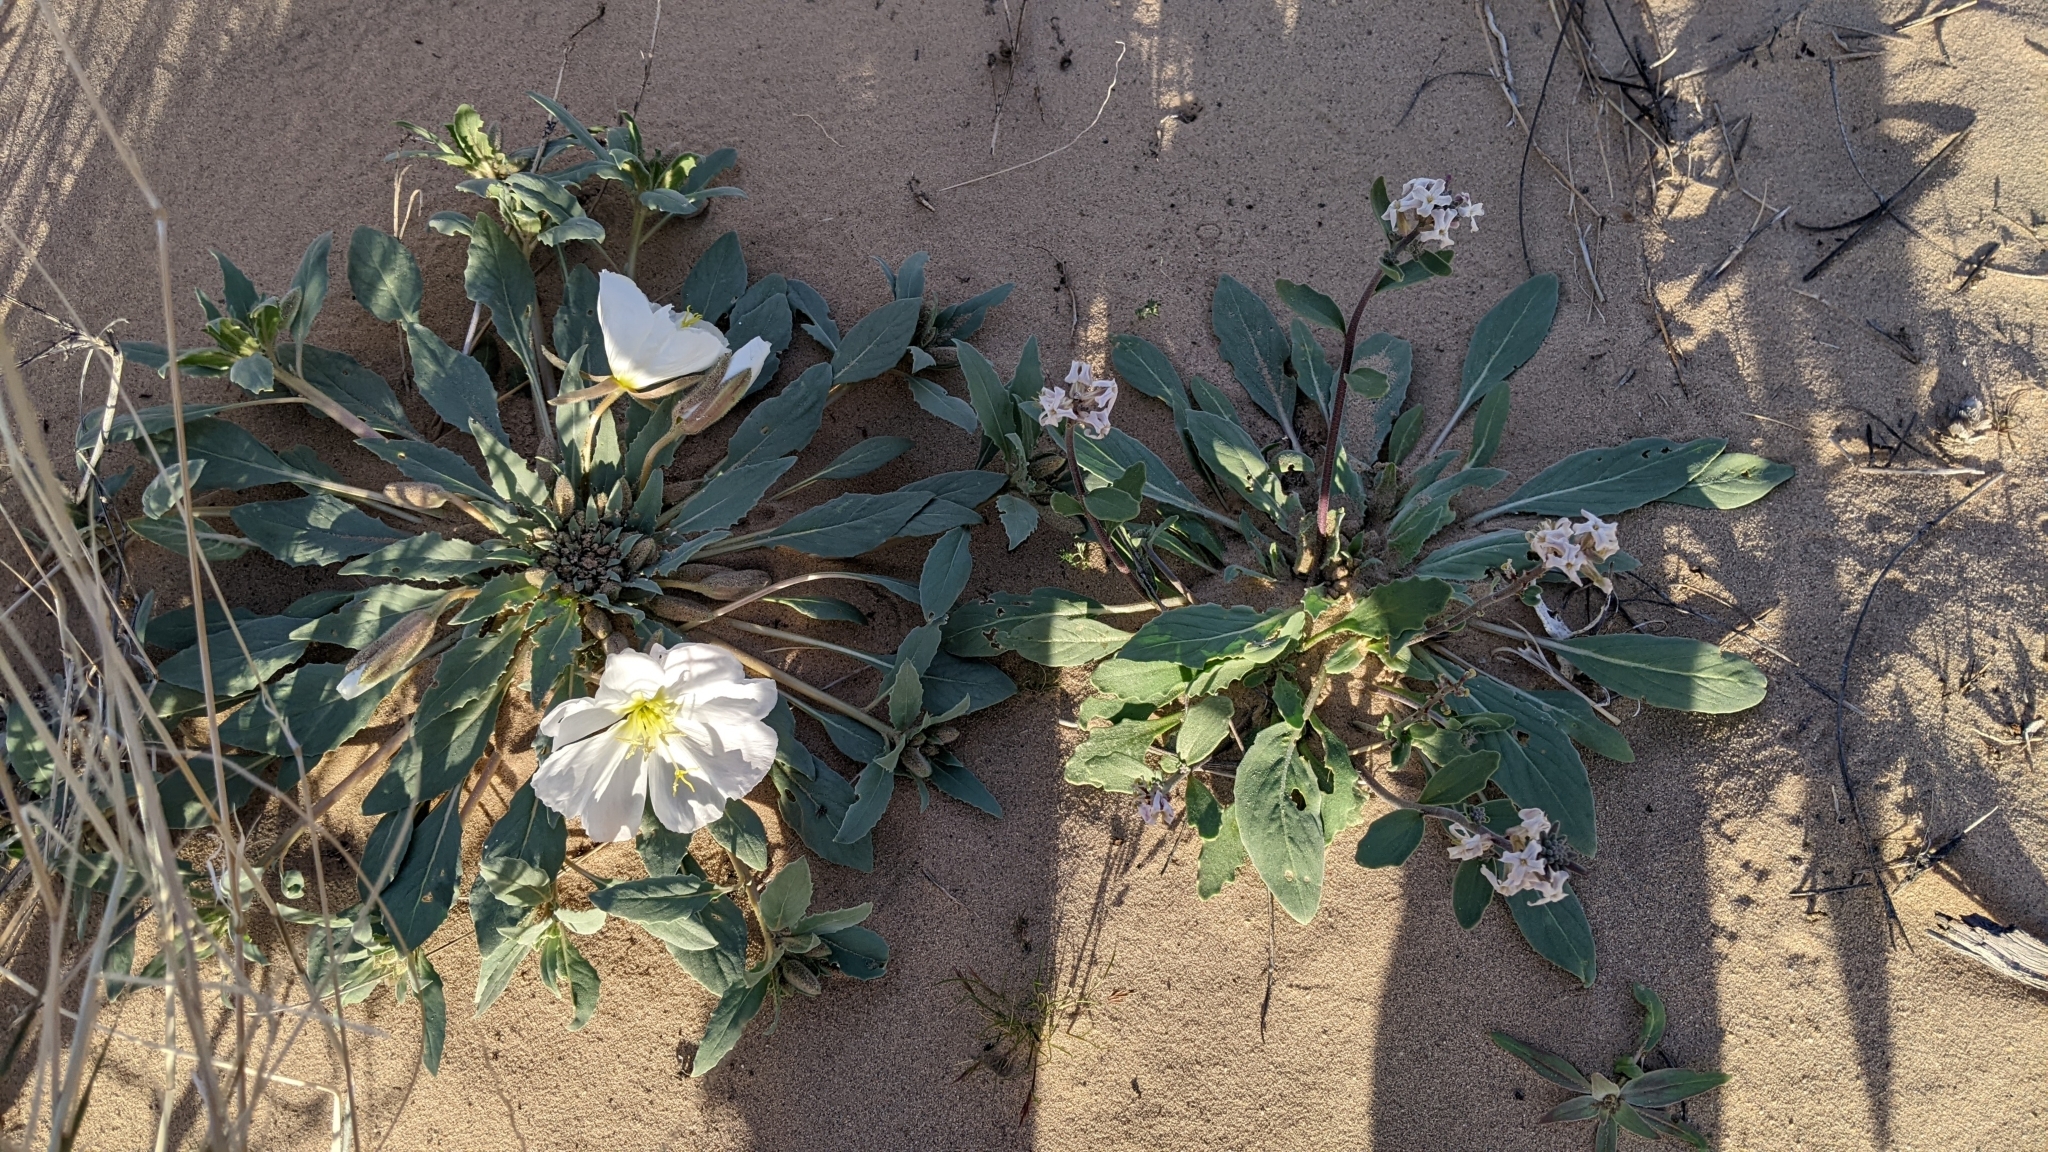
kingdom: Plantae
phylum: Tracheophyta
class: Magnoliopsida
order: Brassicales
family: Brassicaceae
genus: Dithyrea
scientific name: Dithyrea californica
